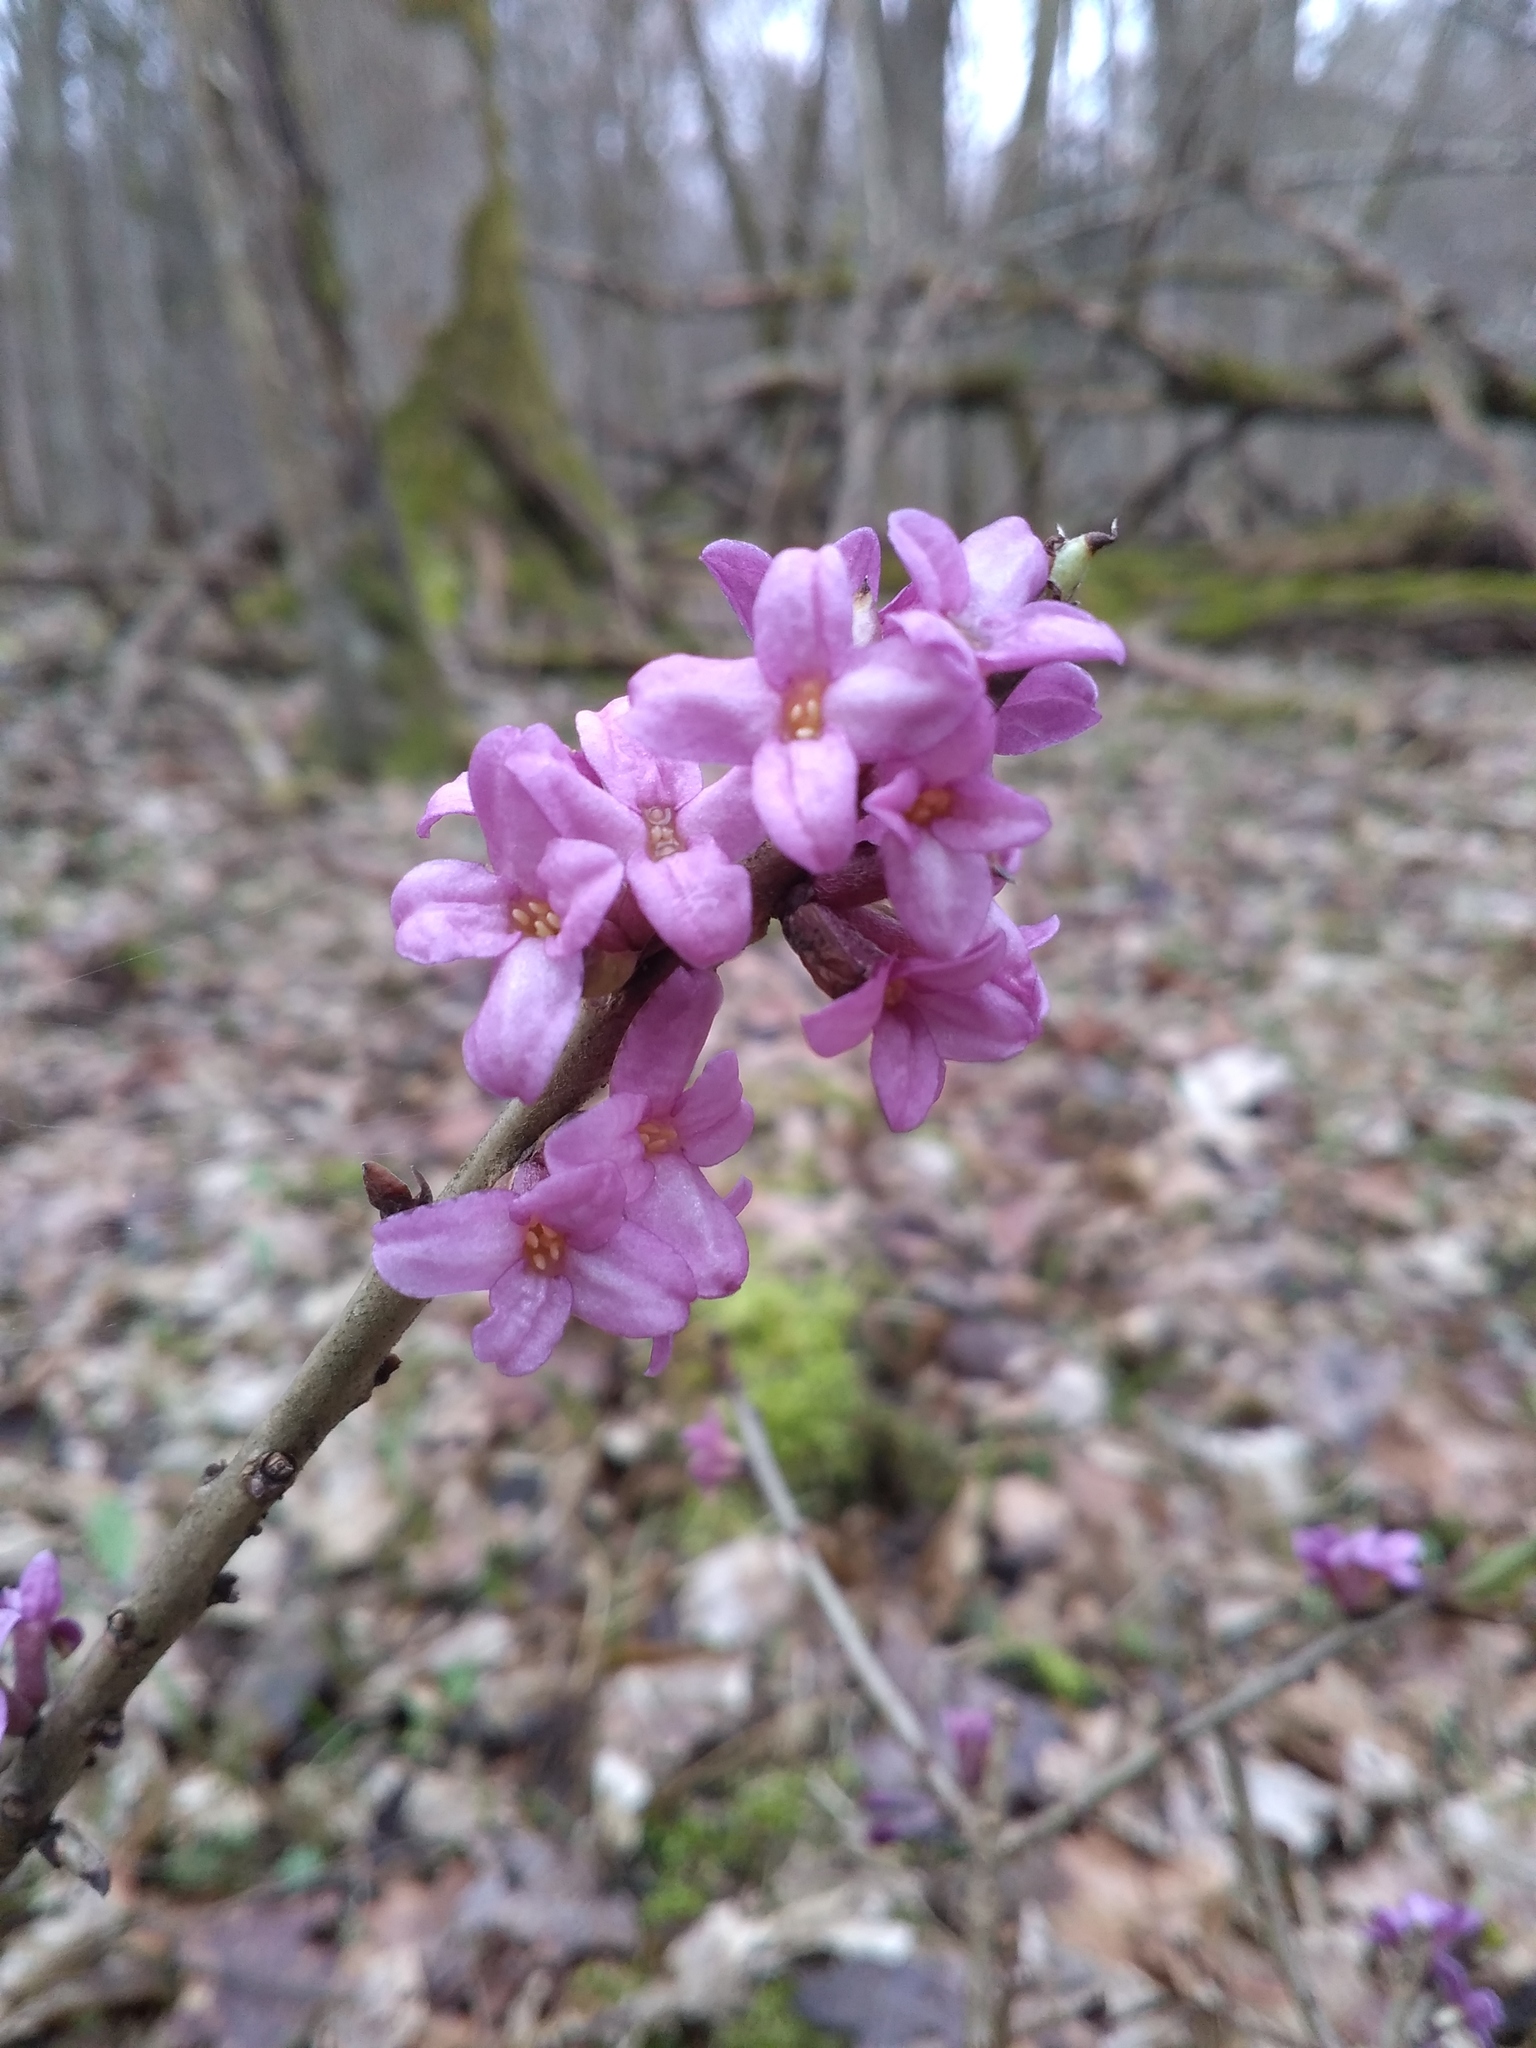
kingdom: Plantae
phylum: Tracheophyta
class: Magnoliopsida
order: Malvales
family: Thymelaeaceae
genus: Daphne
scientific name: Daphne mezereum
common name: Mezereon
